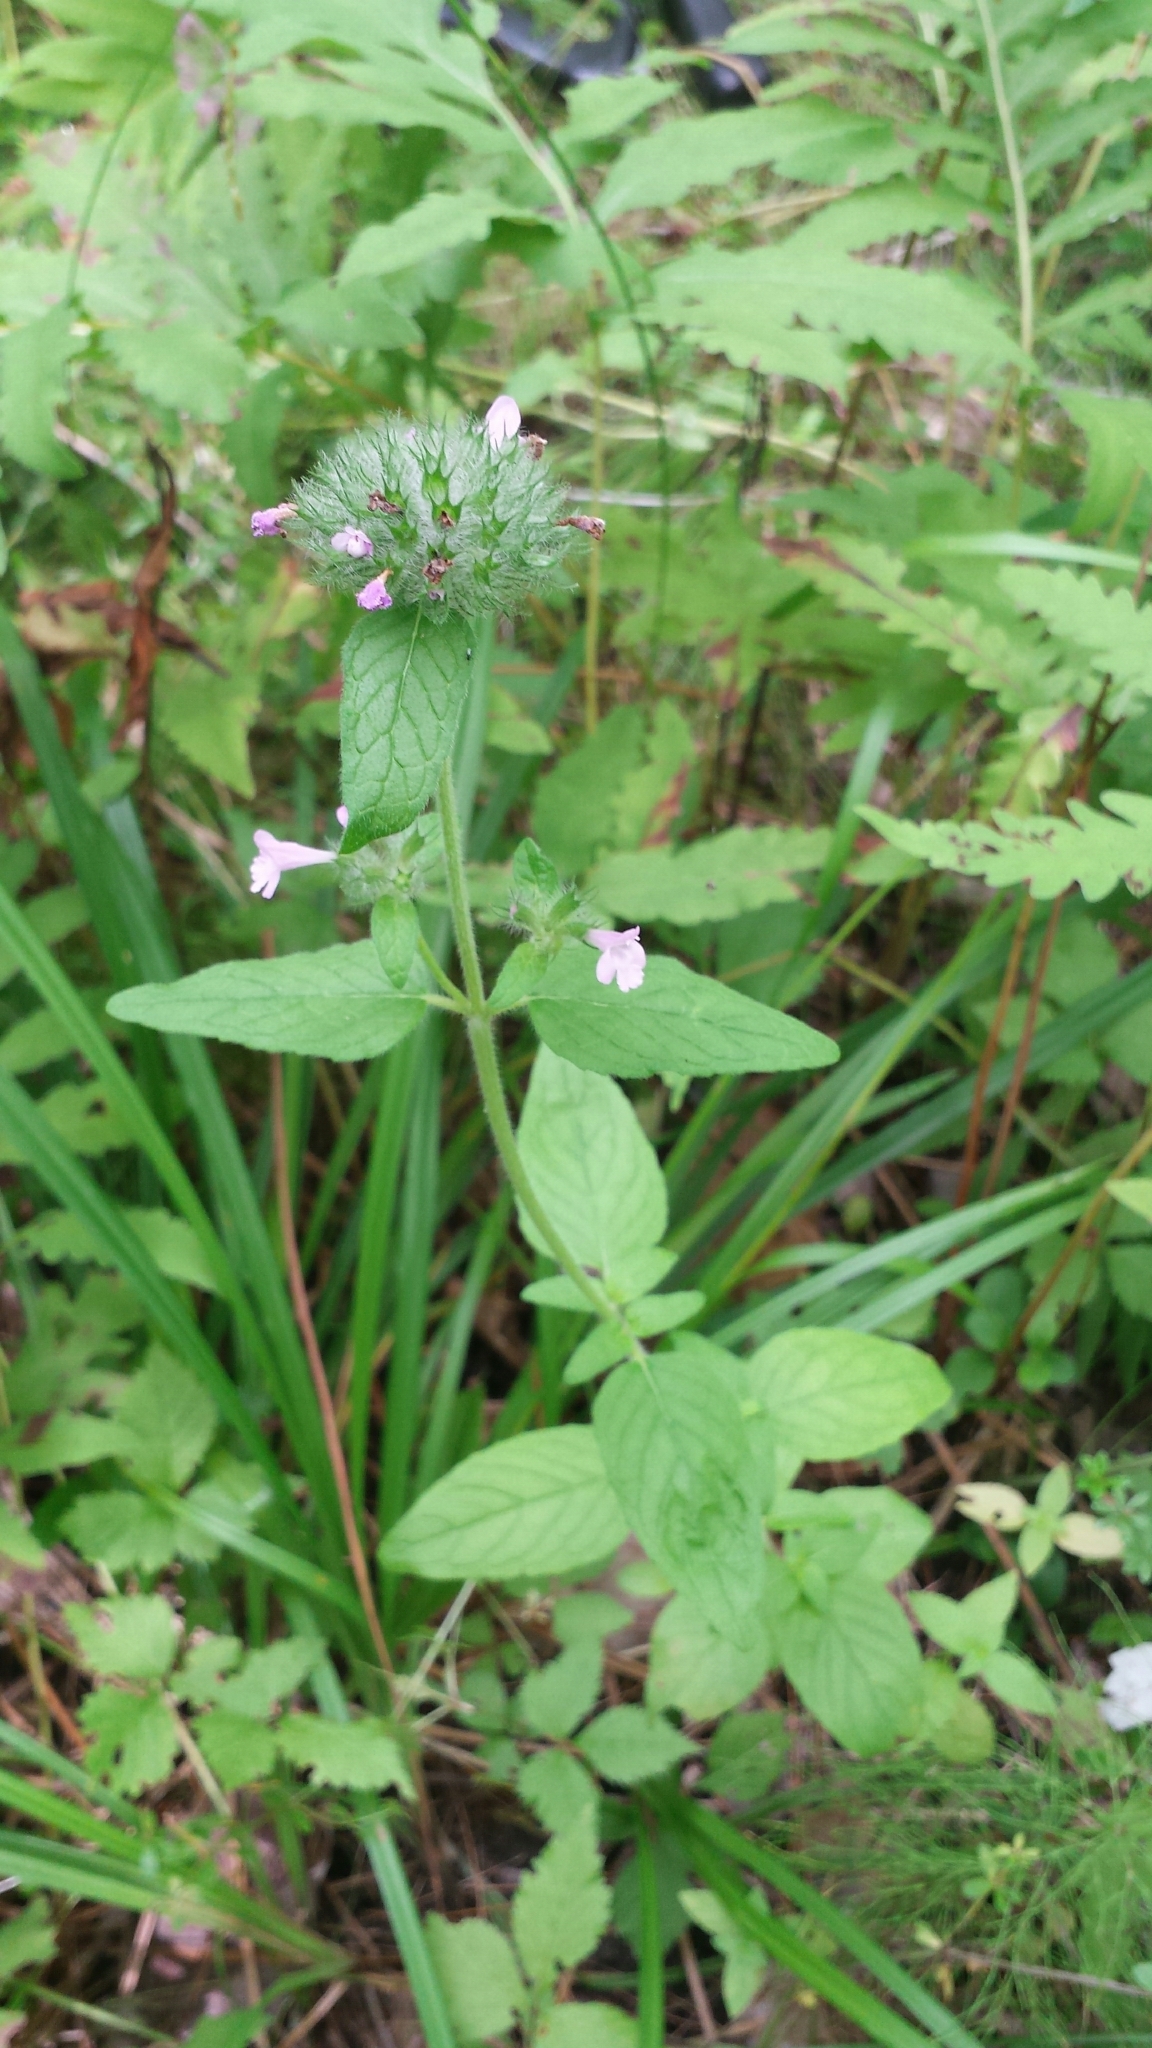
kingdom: Plantae
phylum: Tracheophyta
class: Magnoliopsida
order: Lamiales
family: Lamiaceae
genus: Clinopodium
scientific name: Clinopodium vulgare
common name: Wild basil
